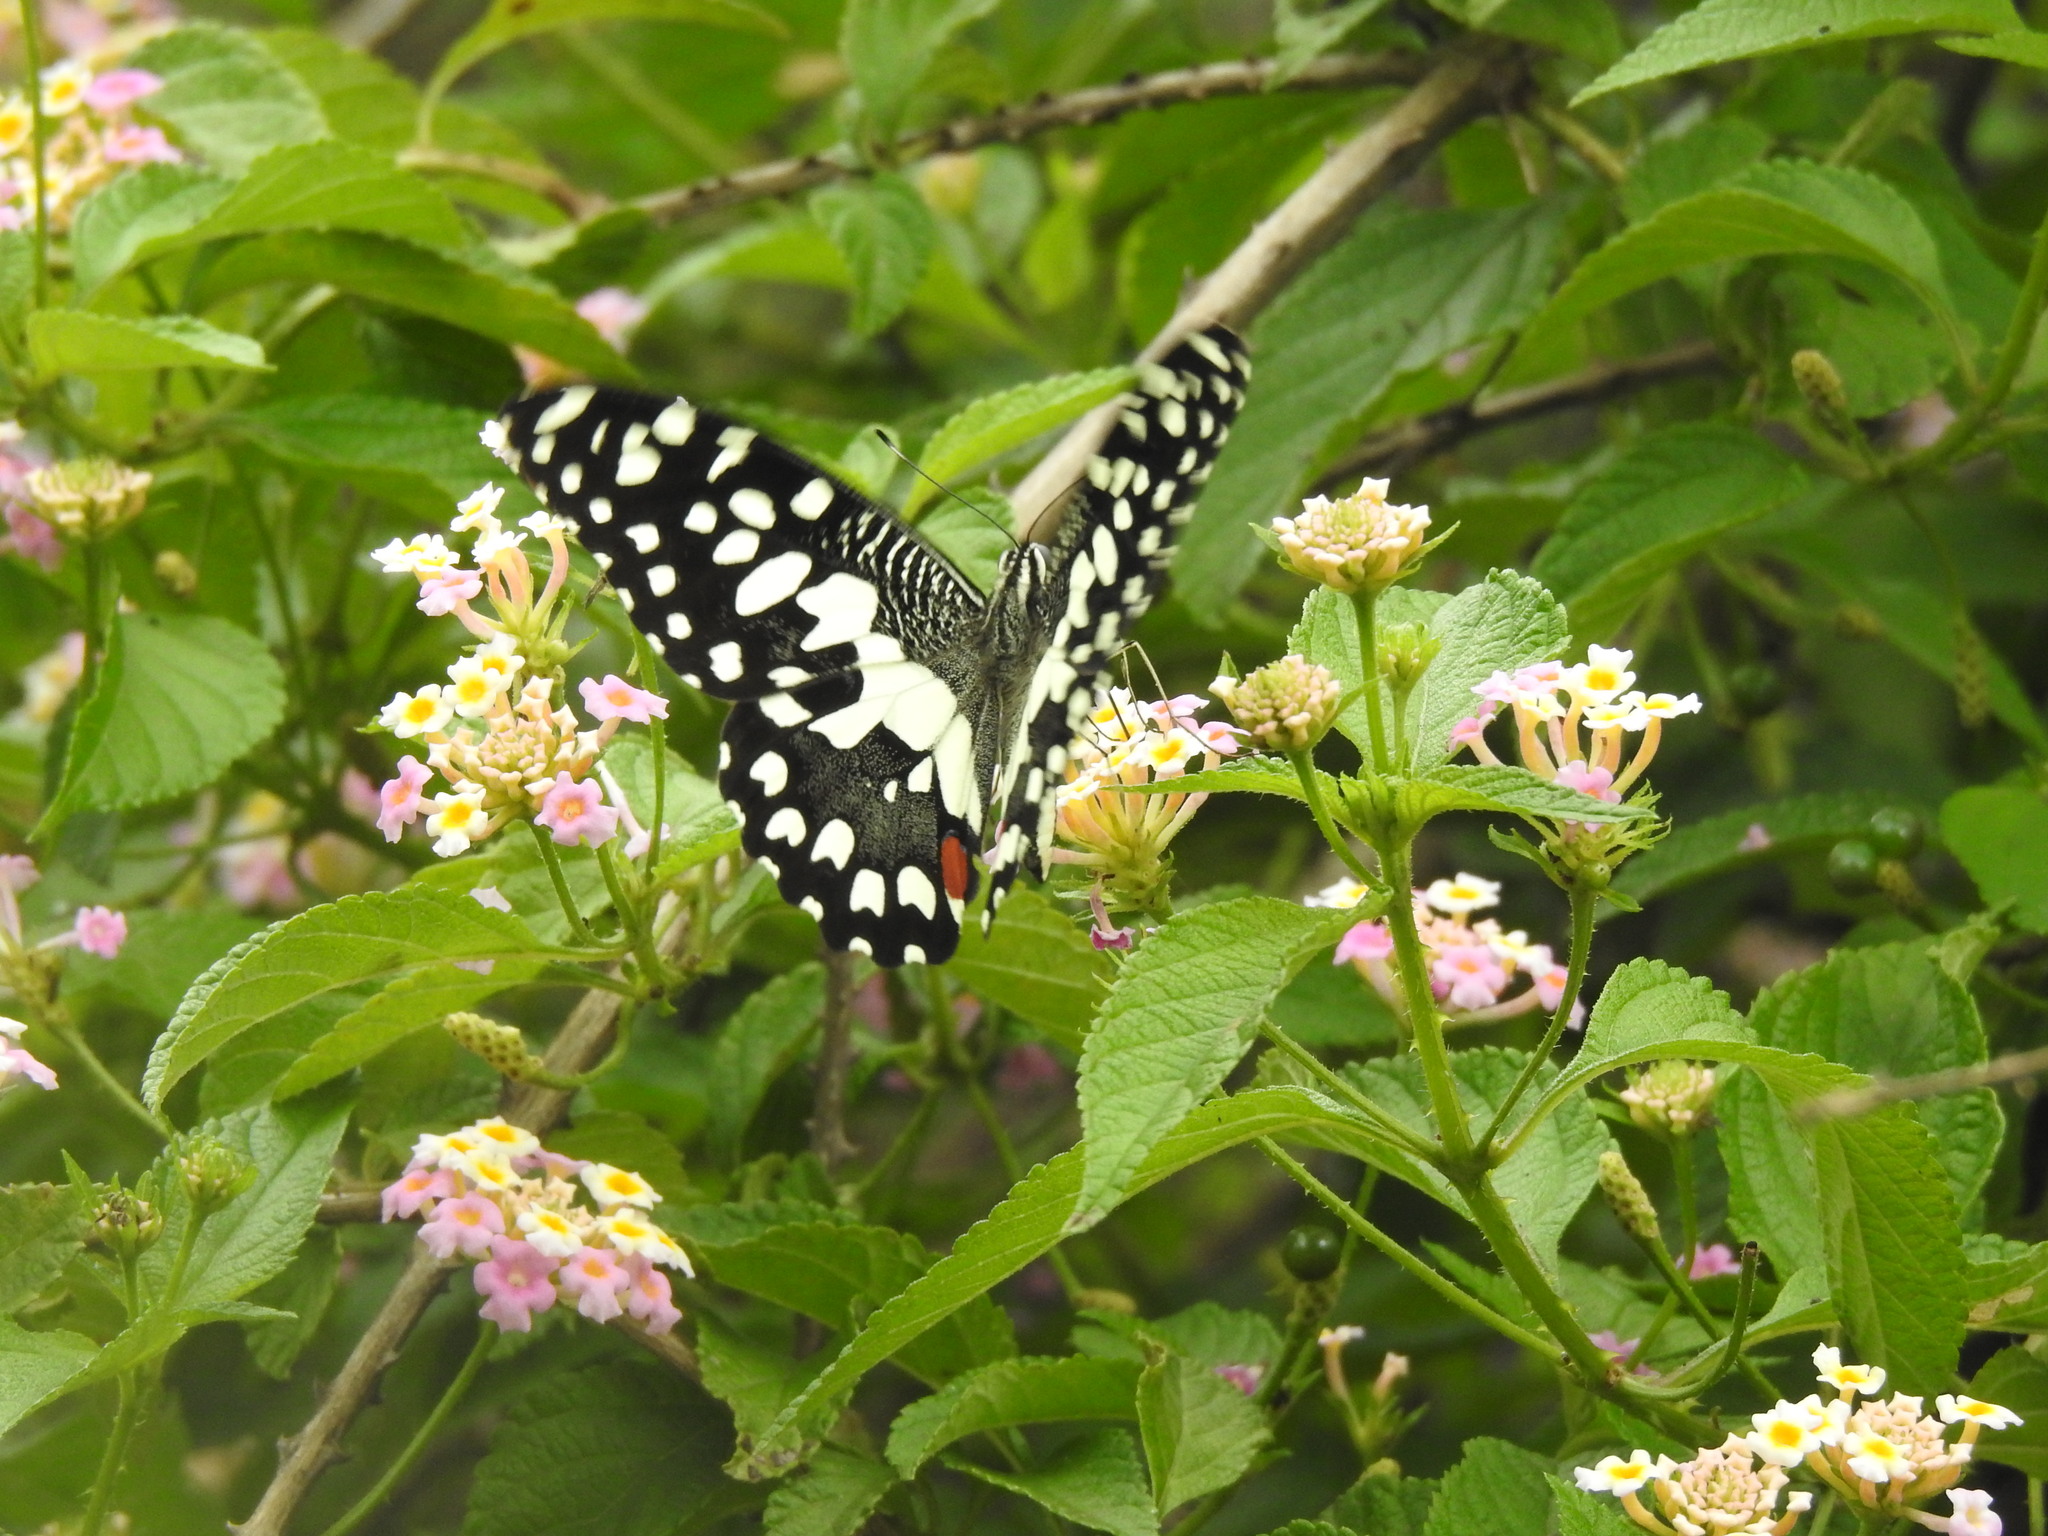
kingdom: Animalia
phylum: Arthropoda
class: Insecta
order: Lepidoptera
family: Papilionidae
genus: Papilio
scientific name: Papilio demoleus
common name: Lime butterfly
